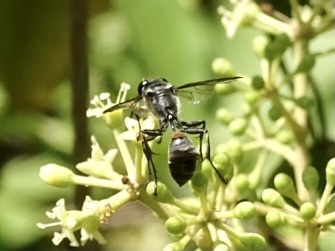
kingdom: Animalia
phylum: Arthropoda
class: Insecta
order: Hymenoptera
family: Sphecidae
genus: Isodontia
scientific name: Isodontia diodon
